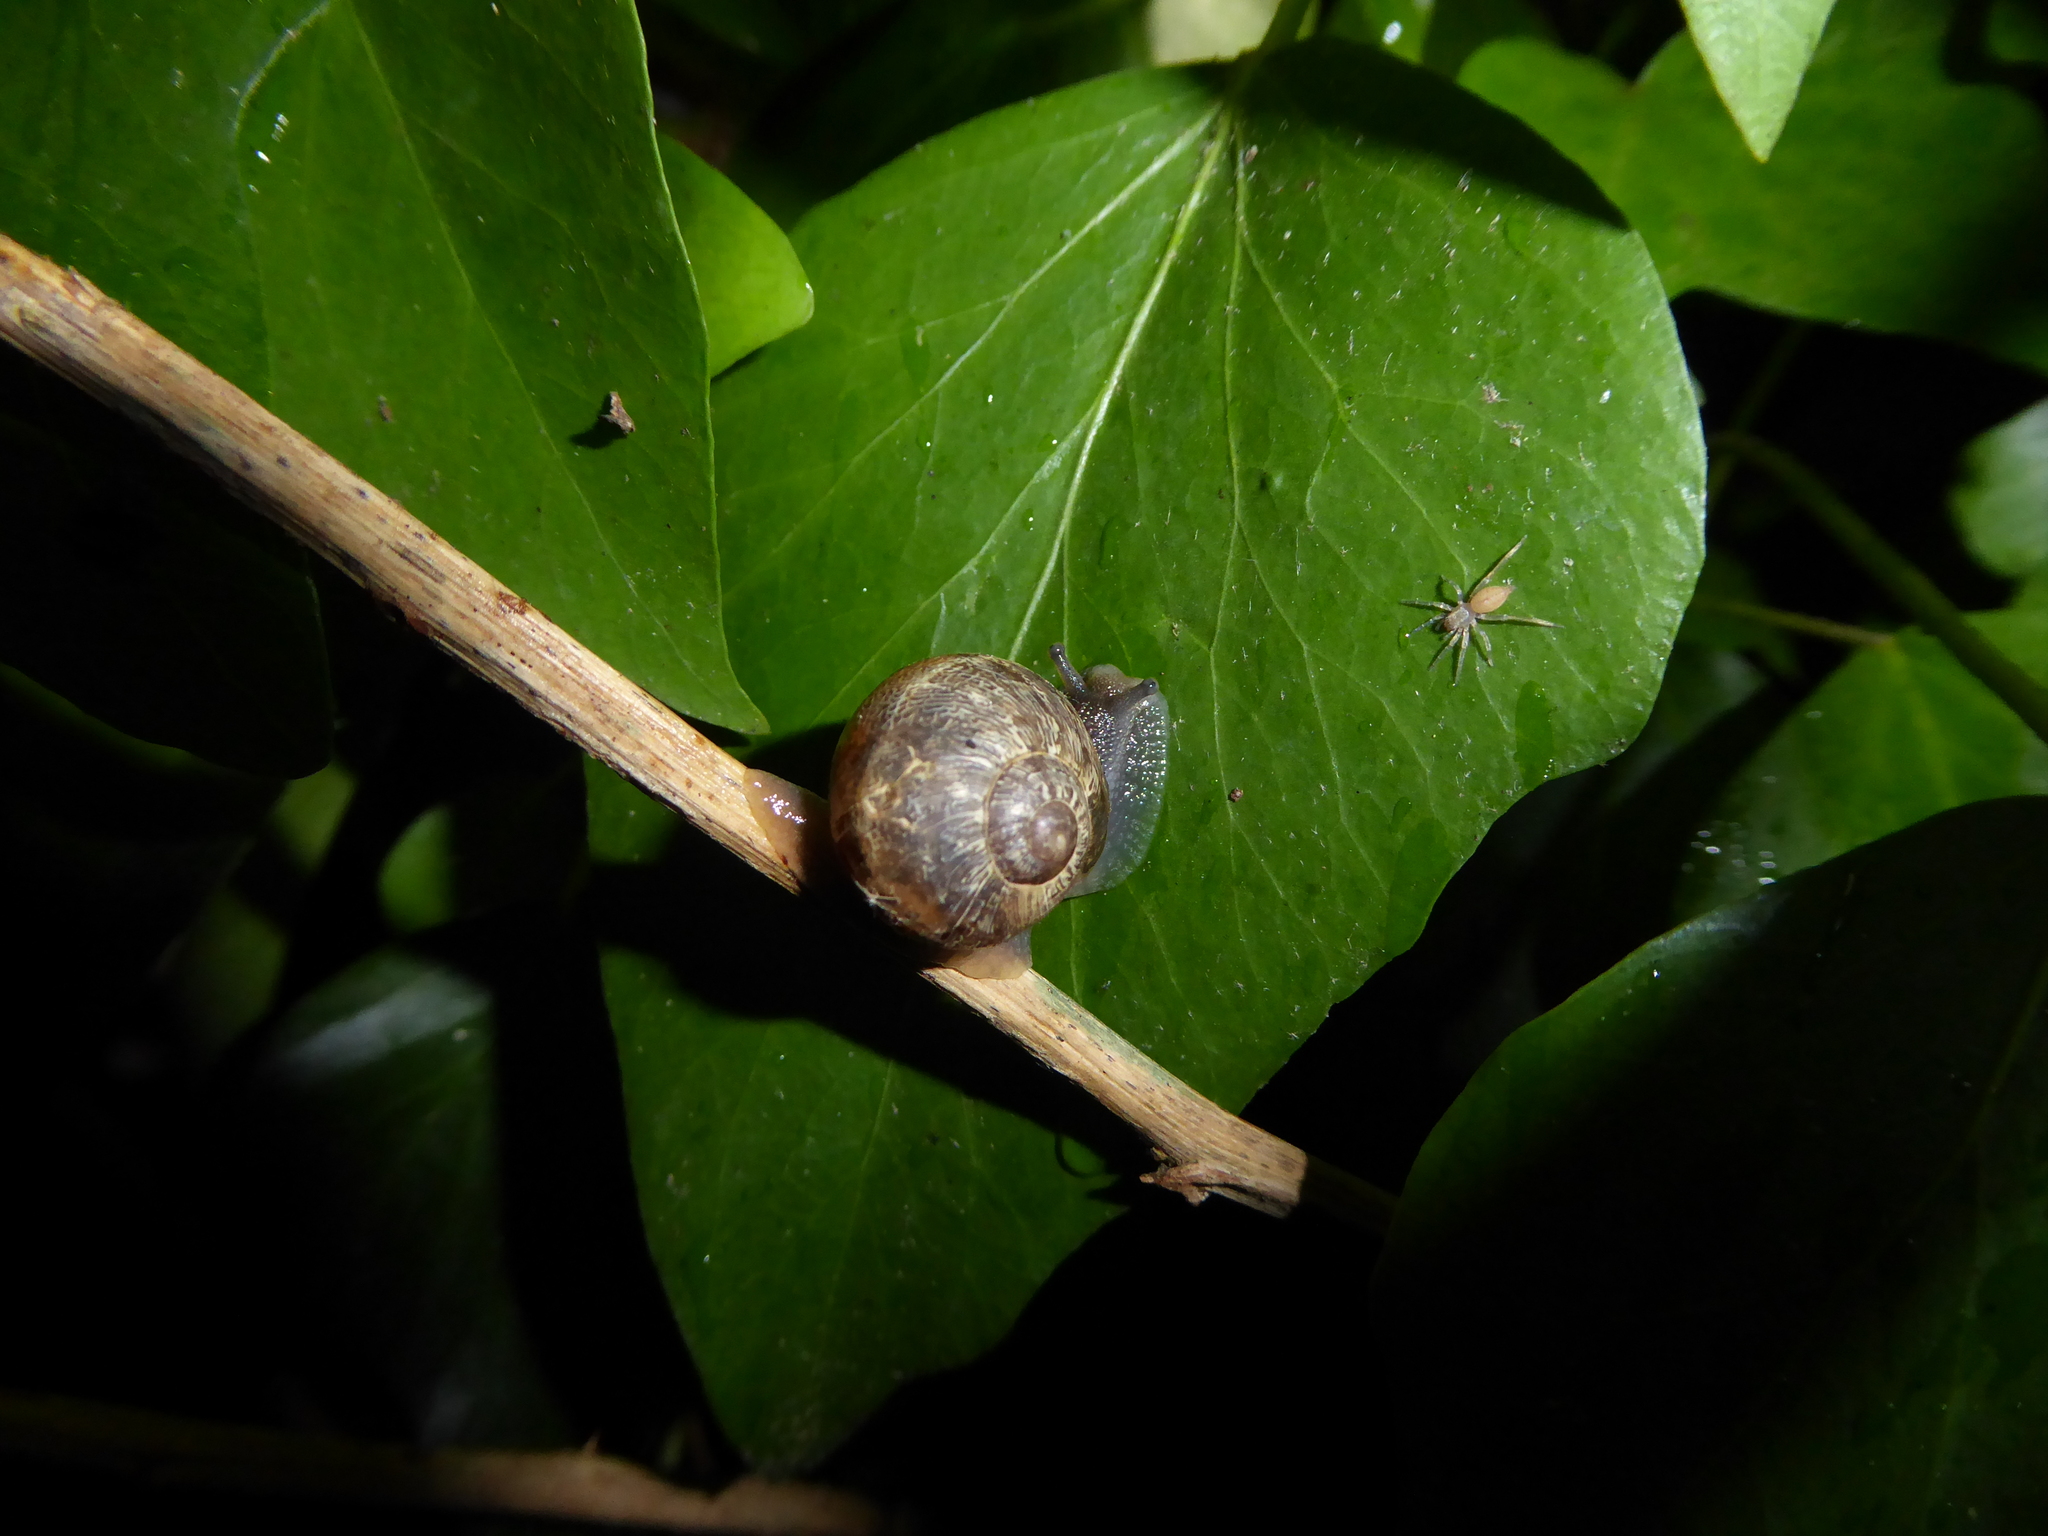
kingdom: Animalia
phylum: Mollusca
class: Gastropoda
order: Stylommatophora
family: Helicidae
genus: Cornu
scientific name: Cornu aspersum
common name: Brown garden snail
